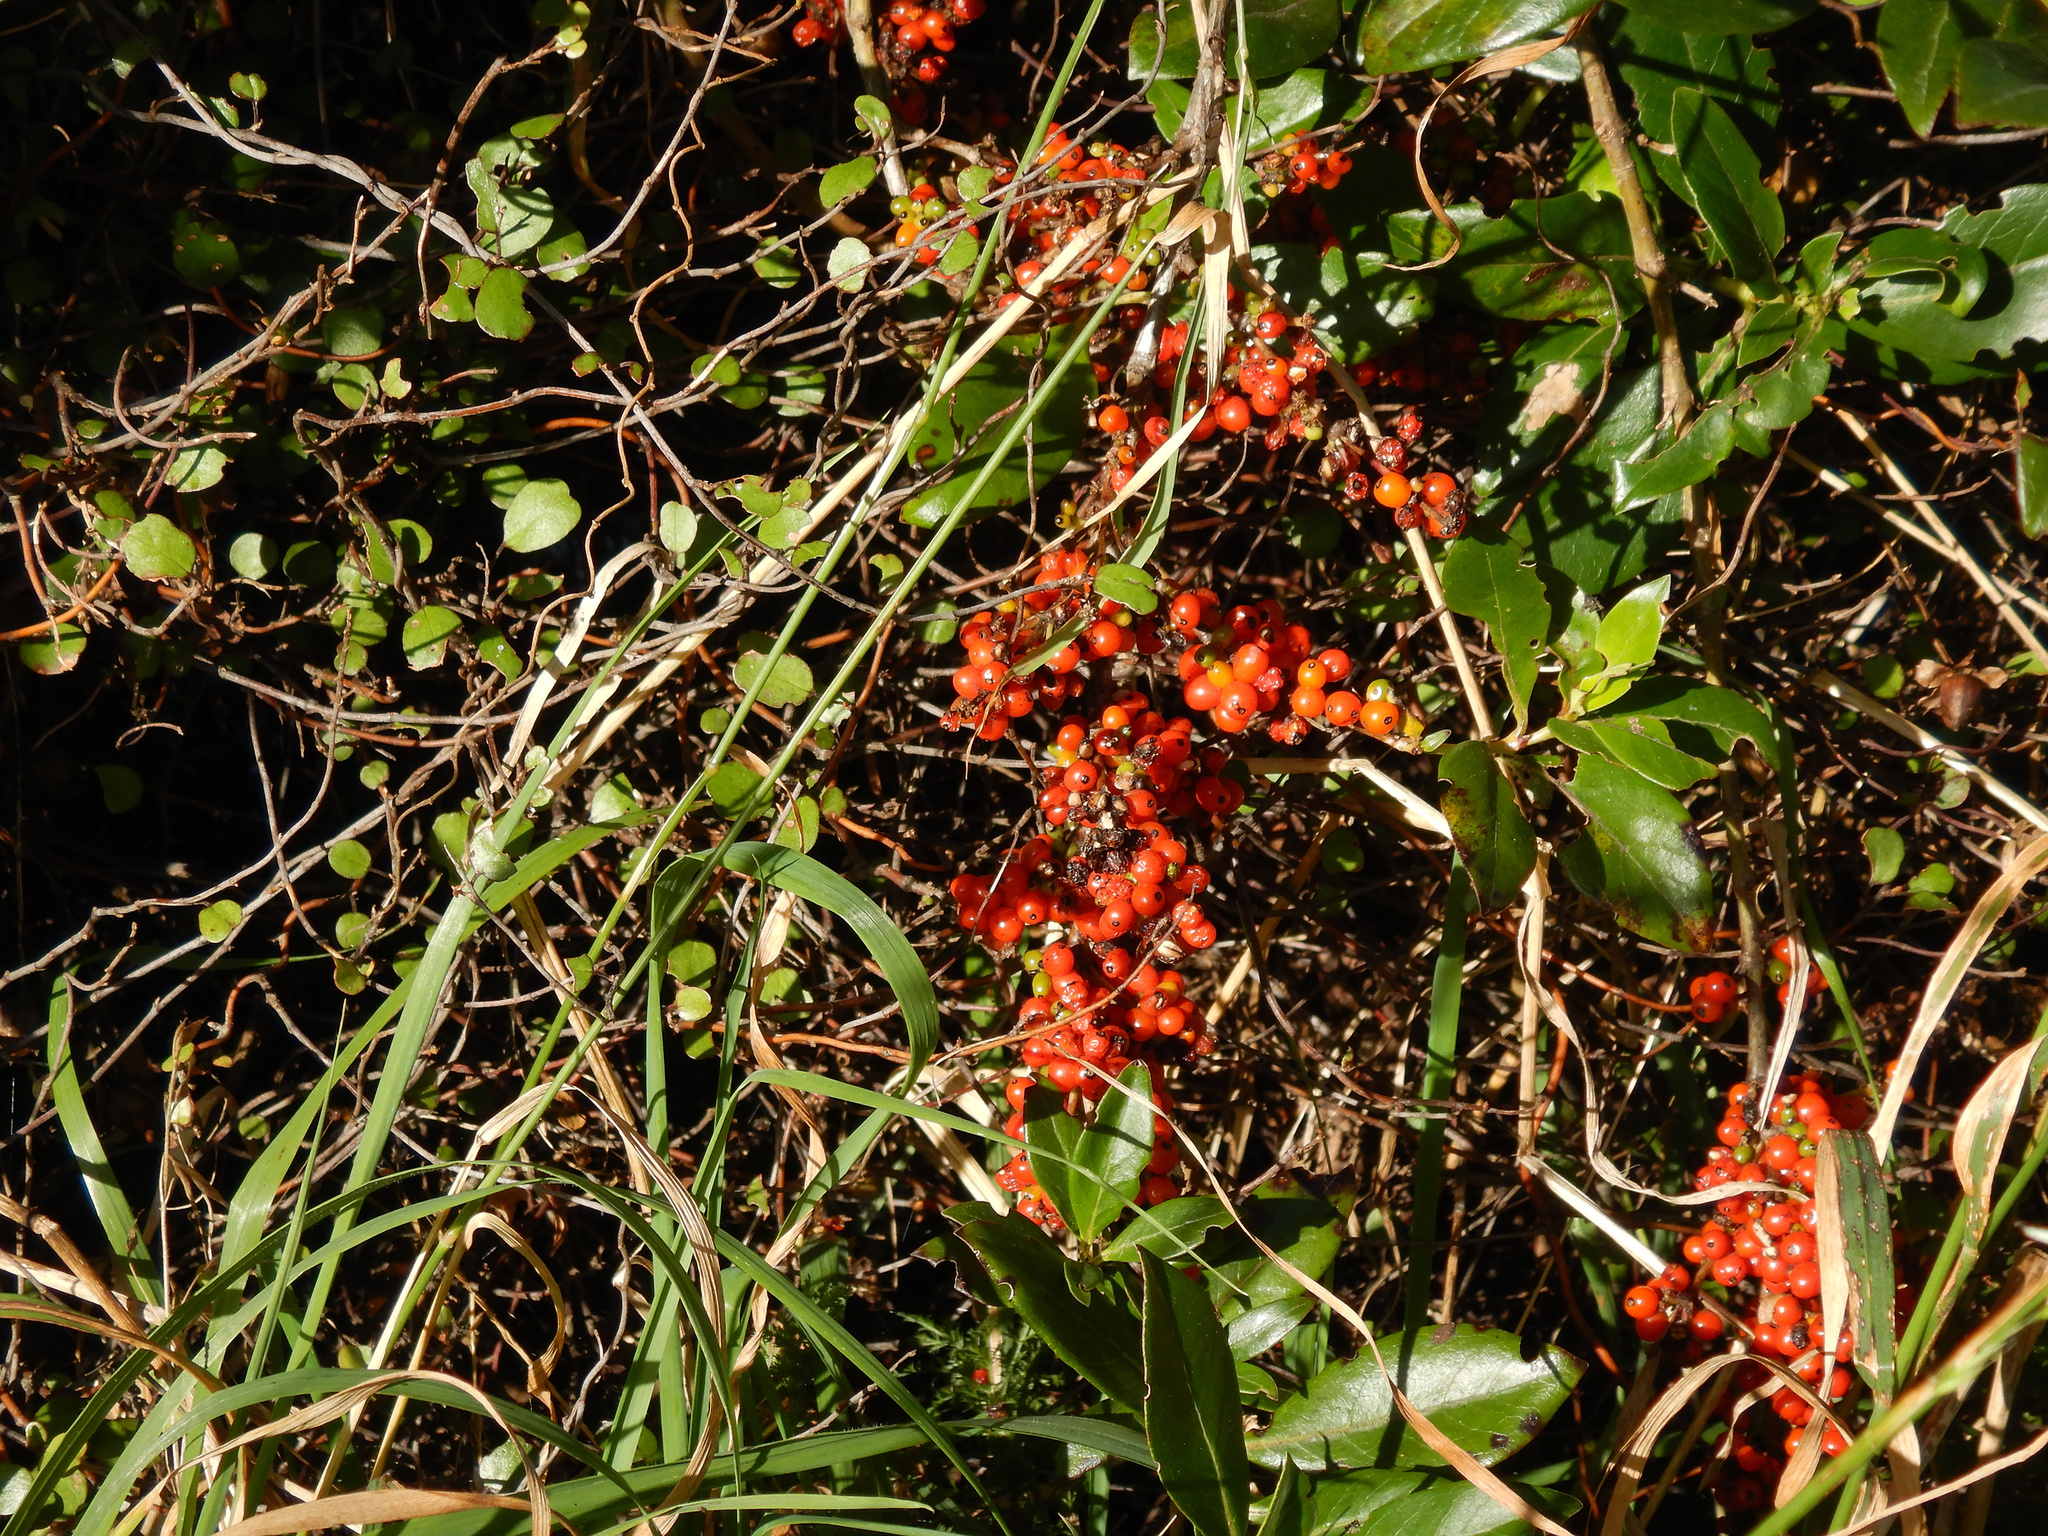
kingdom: Plantae
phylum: Tracheophyta
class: Magnoliopsida
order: Gentianales
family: Rubiaceae
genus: Coprosma
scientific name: Coprosma robusta
